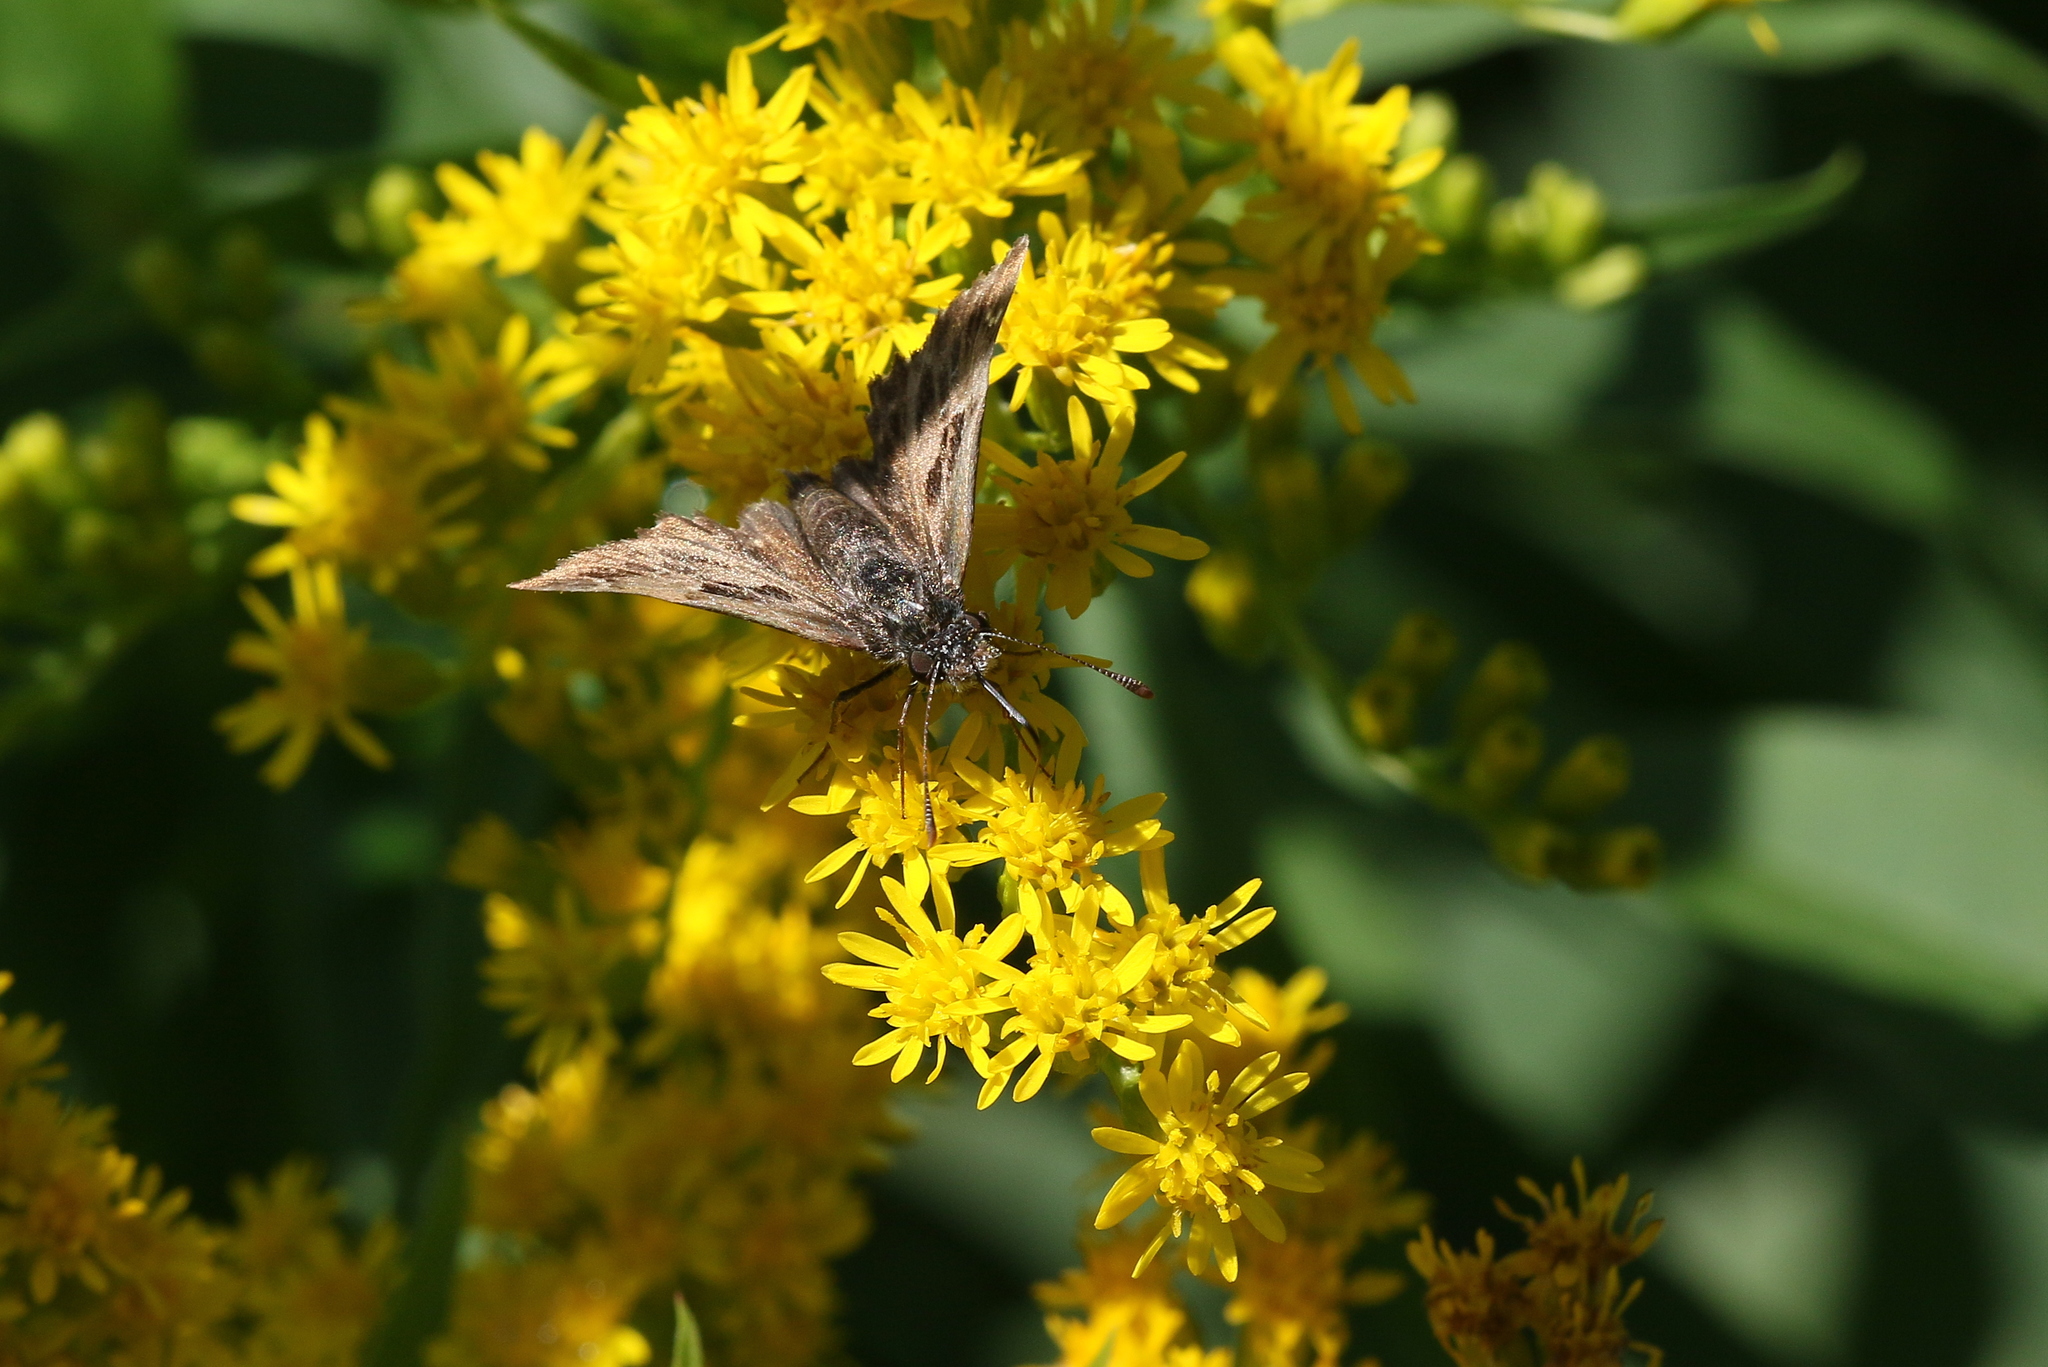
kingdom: Animalia
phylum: Arthropoda
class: Insecta
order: Lepidoptera
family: Hesperiidae
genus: Carcharodus
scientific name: Carcharodus alceae
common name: Mallow skipper
